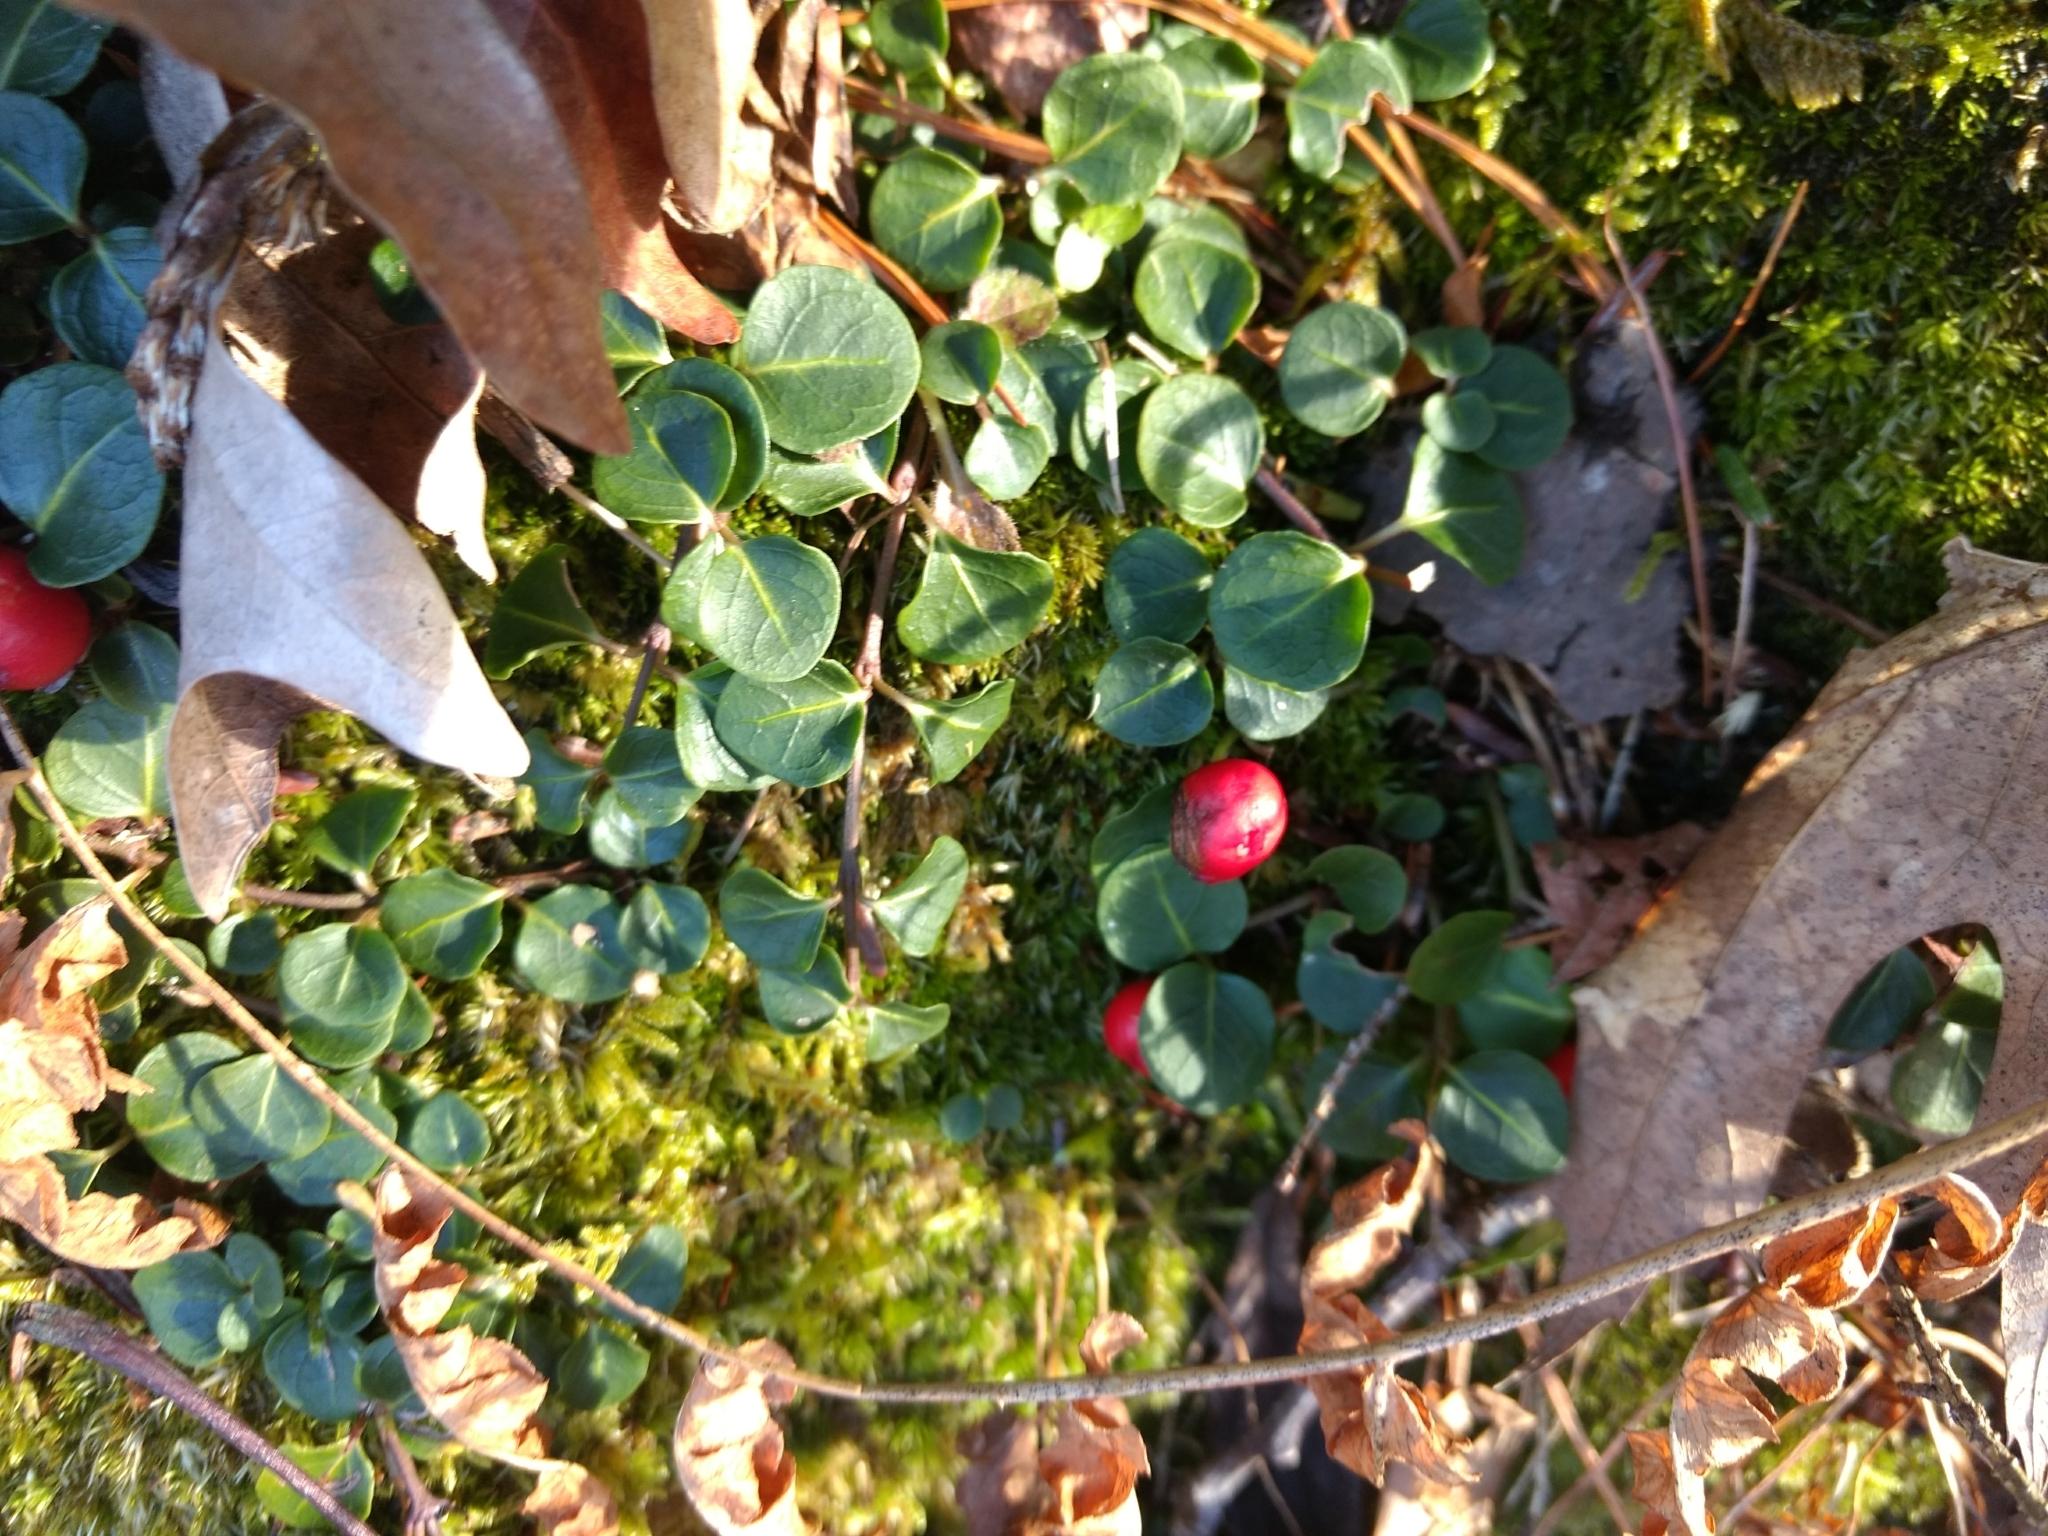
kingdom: Plantae
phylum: Tracheophyta
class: Magnoliopsida
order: Gentianales
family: Rubiaceae
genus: Mitchella
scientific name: Mitchella repens
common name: Partridge-berry
